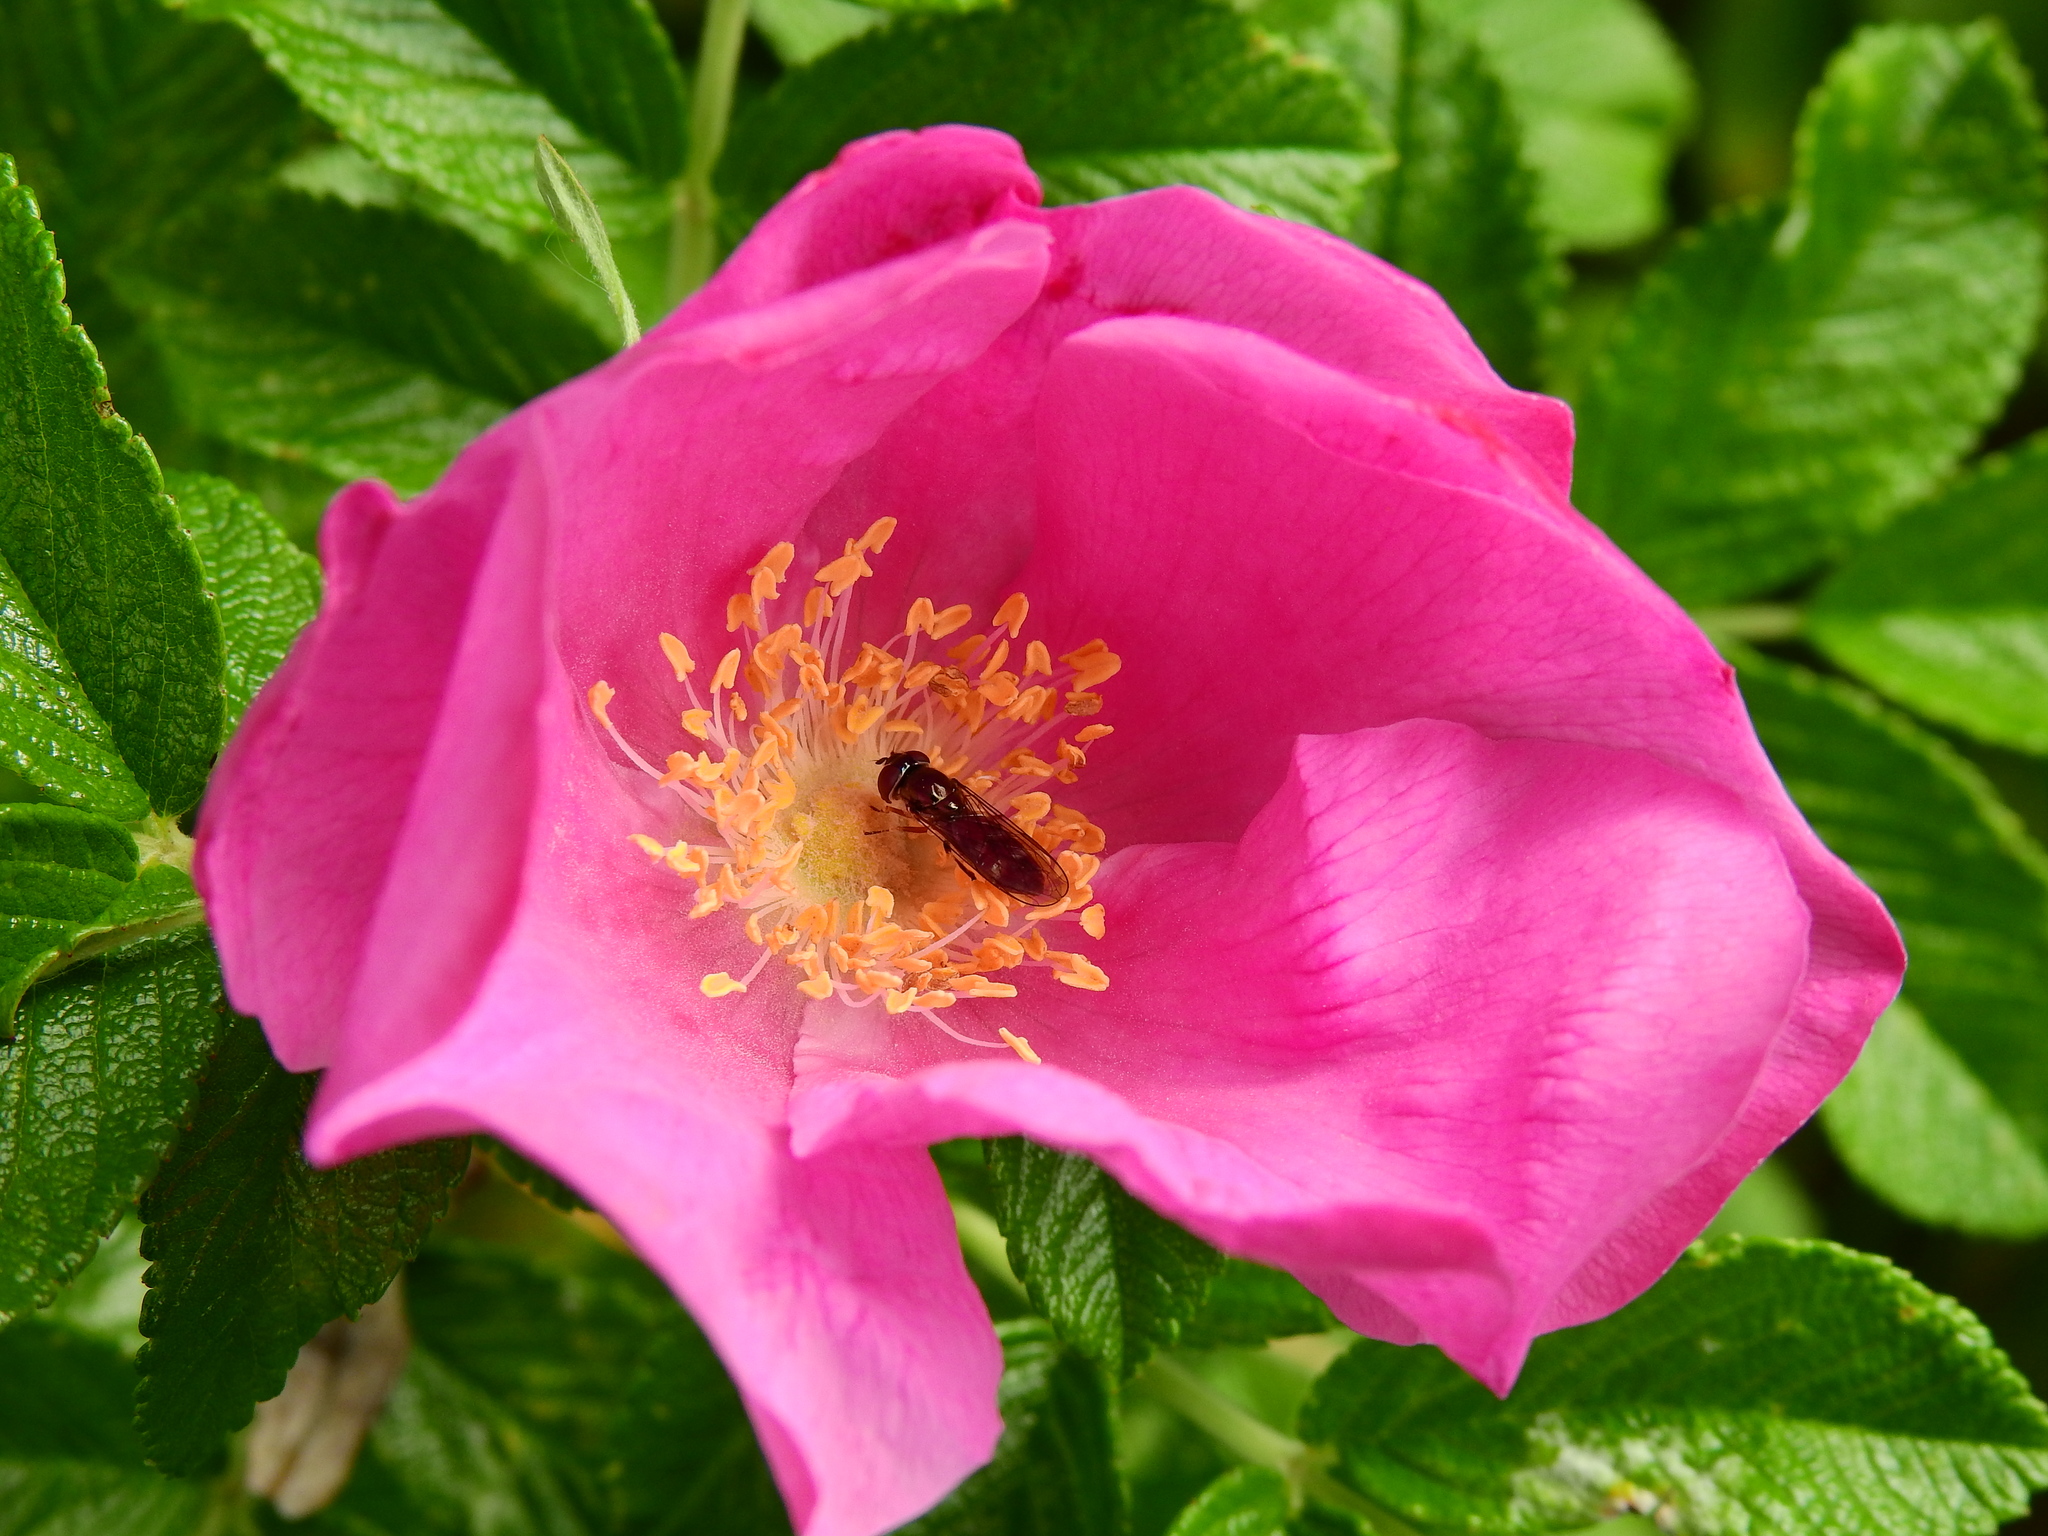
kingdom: Animalia
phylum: Arthropoda
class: Insecta
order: Diptera
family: Syrphidae
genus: Platycheirus
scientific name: Platycheirus albimanus
